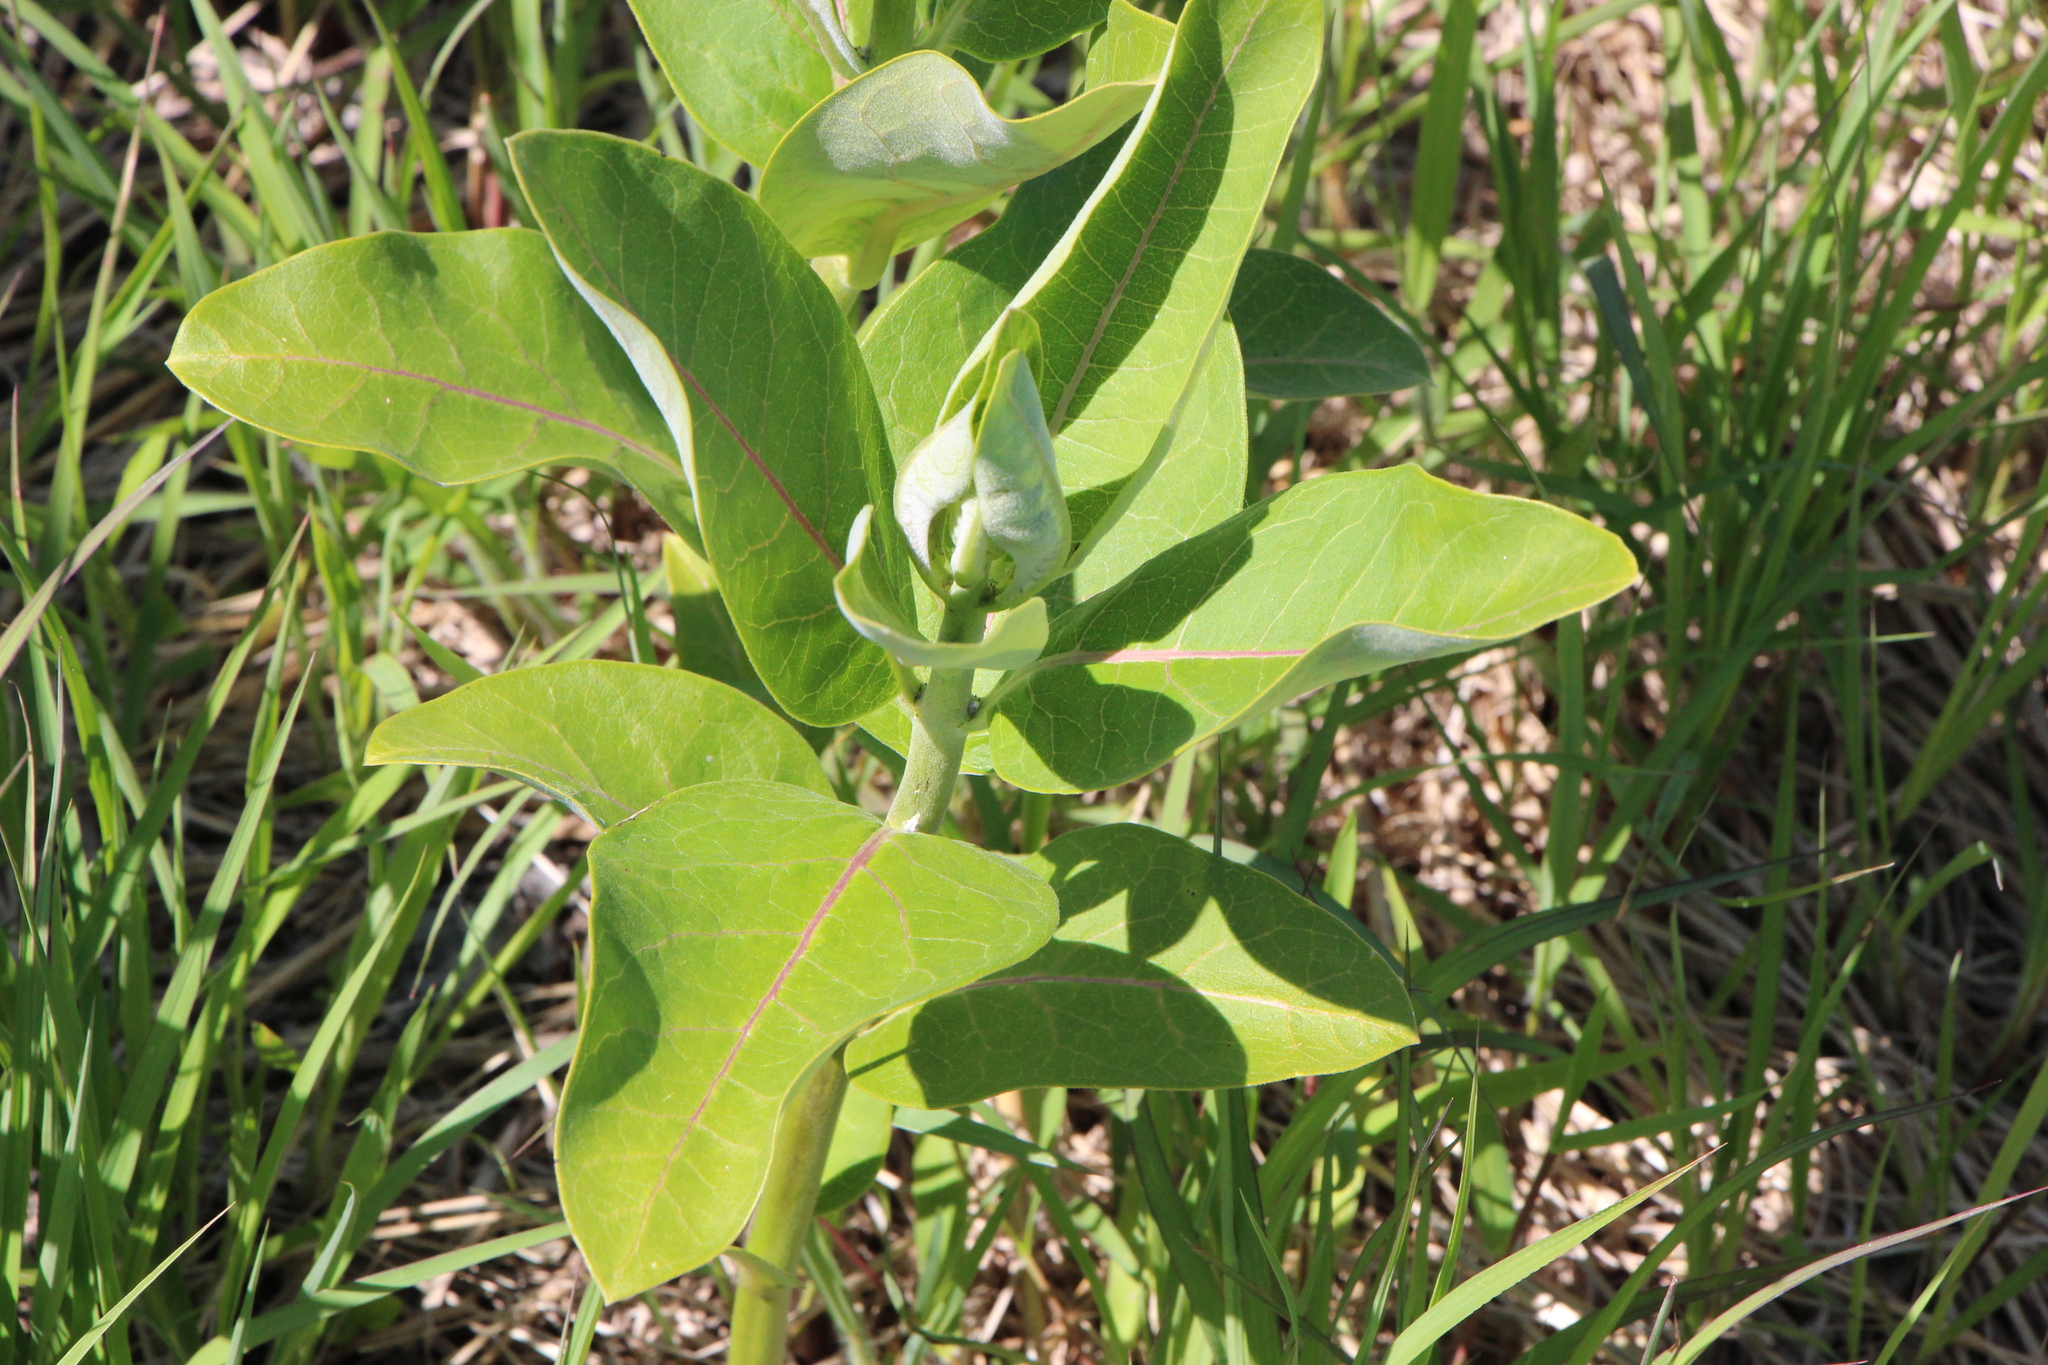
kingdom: Plantae
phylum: Tracheophyta
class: Magnoliopsida
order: Gentianales
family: Apocynaceae
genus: Asclepias
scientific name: Asclepias syriaca
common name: Common milkweed
